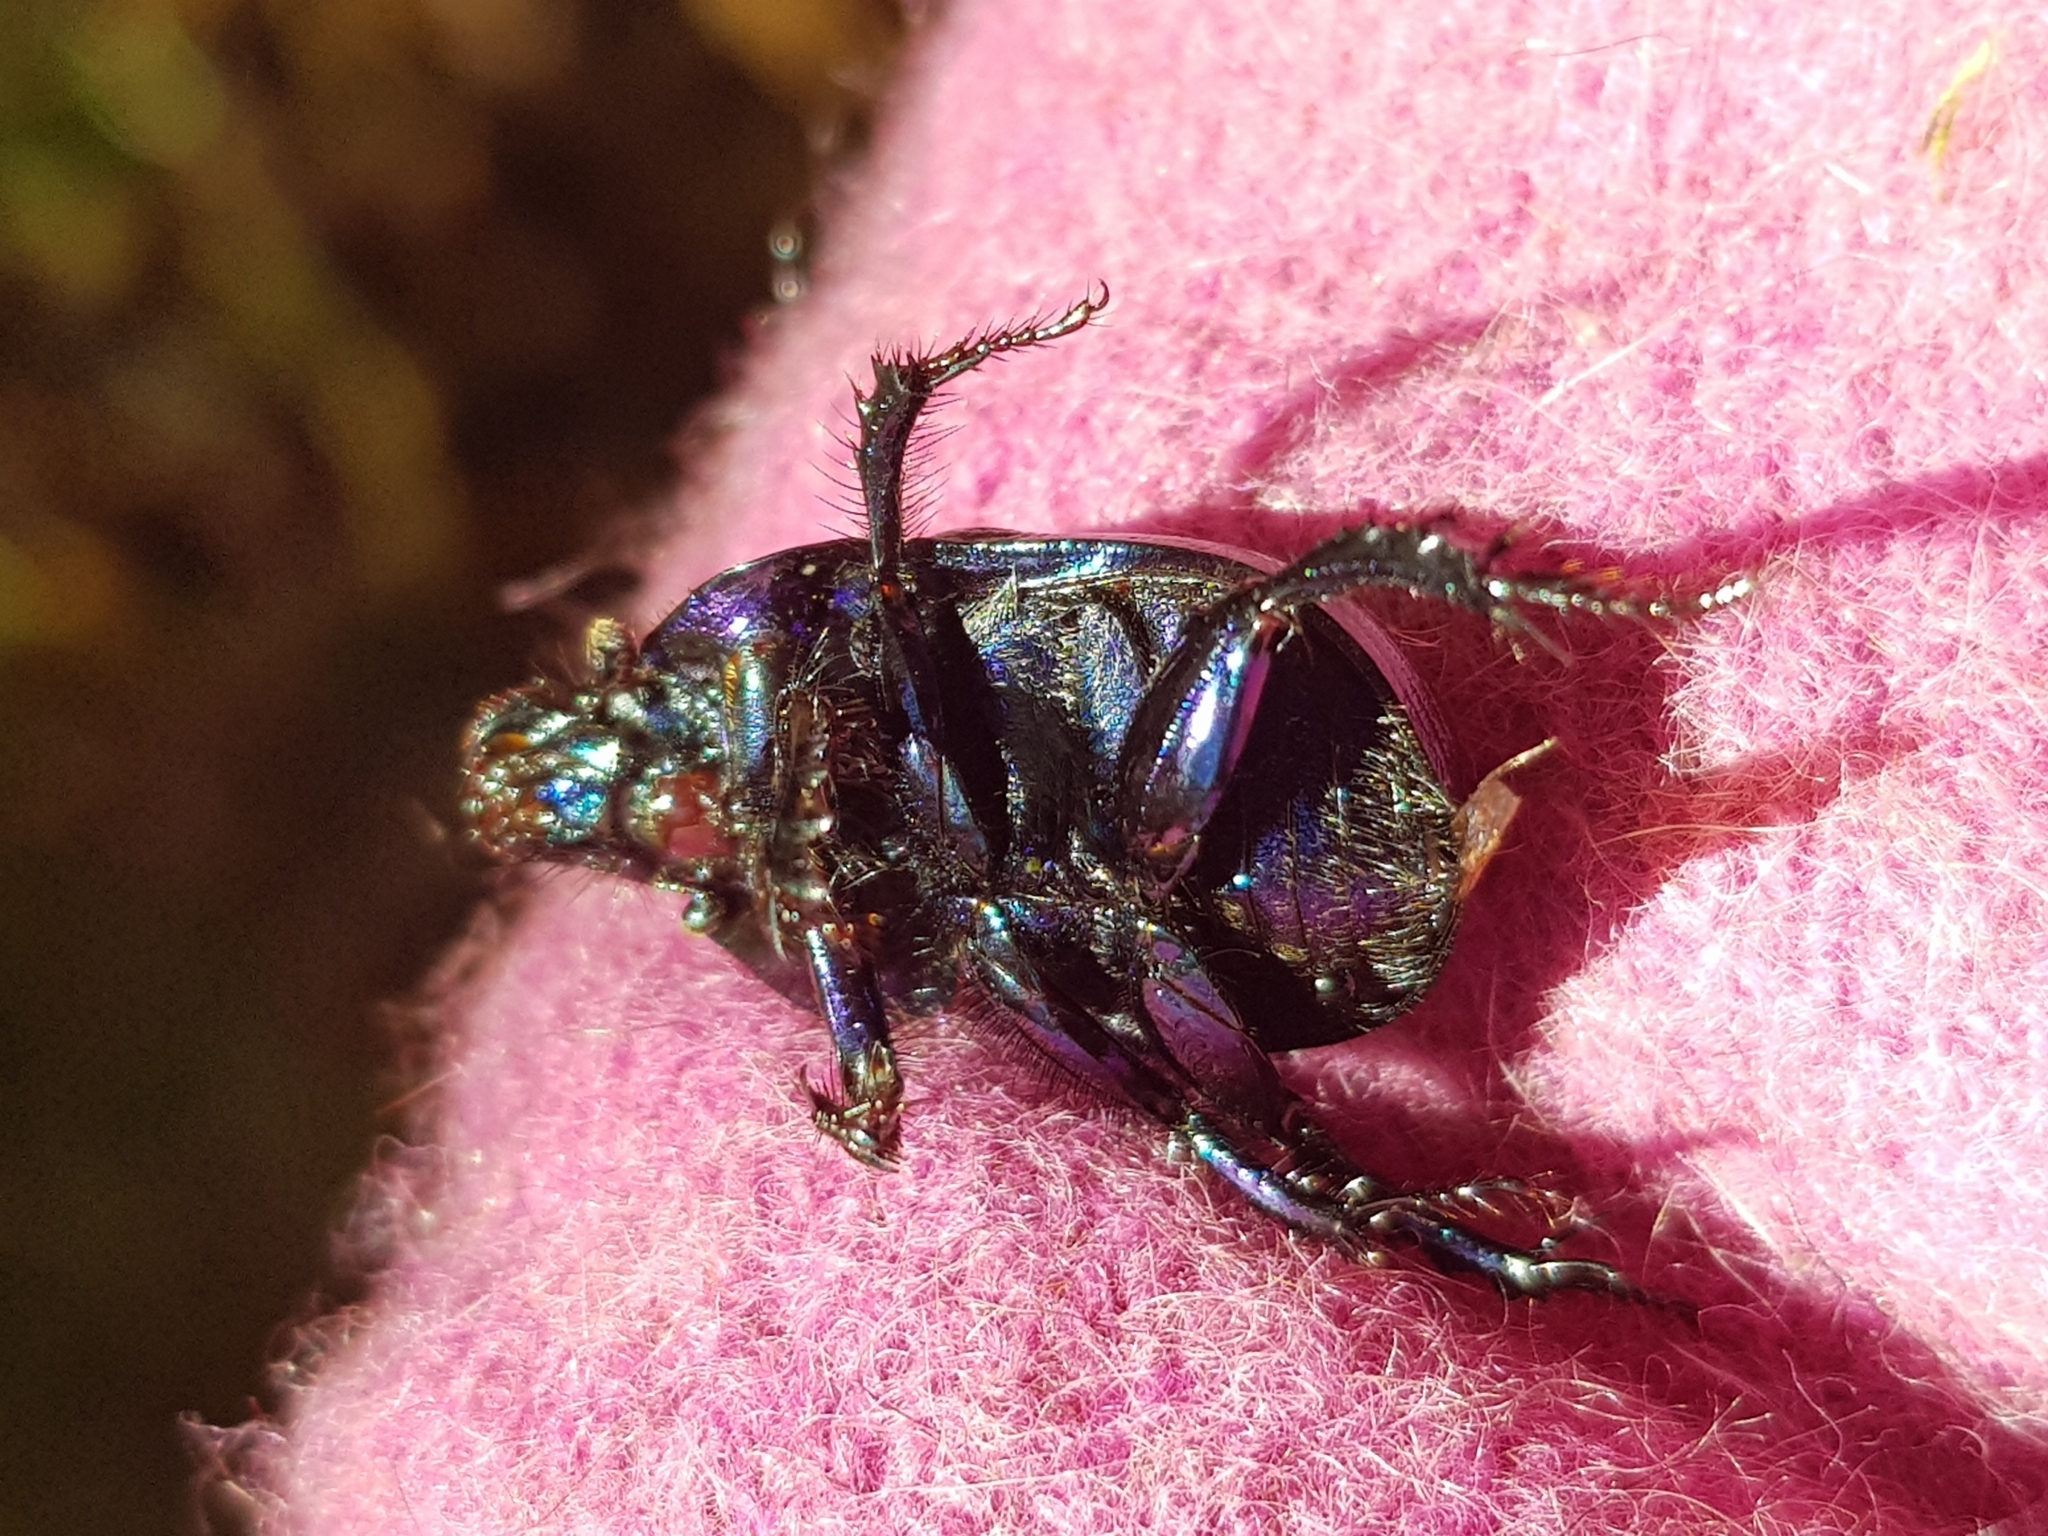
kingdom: Animalia
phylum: Arthropoda
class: Insecta
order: Coleoptera
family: Geotrupidae
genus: Anoplotrupes
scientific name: Anoplotrupes stercorosus
